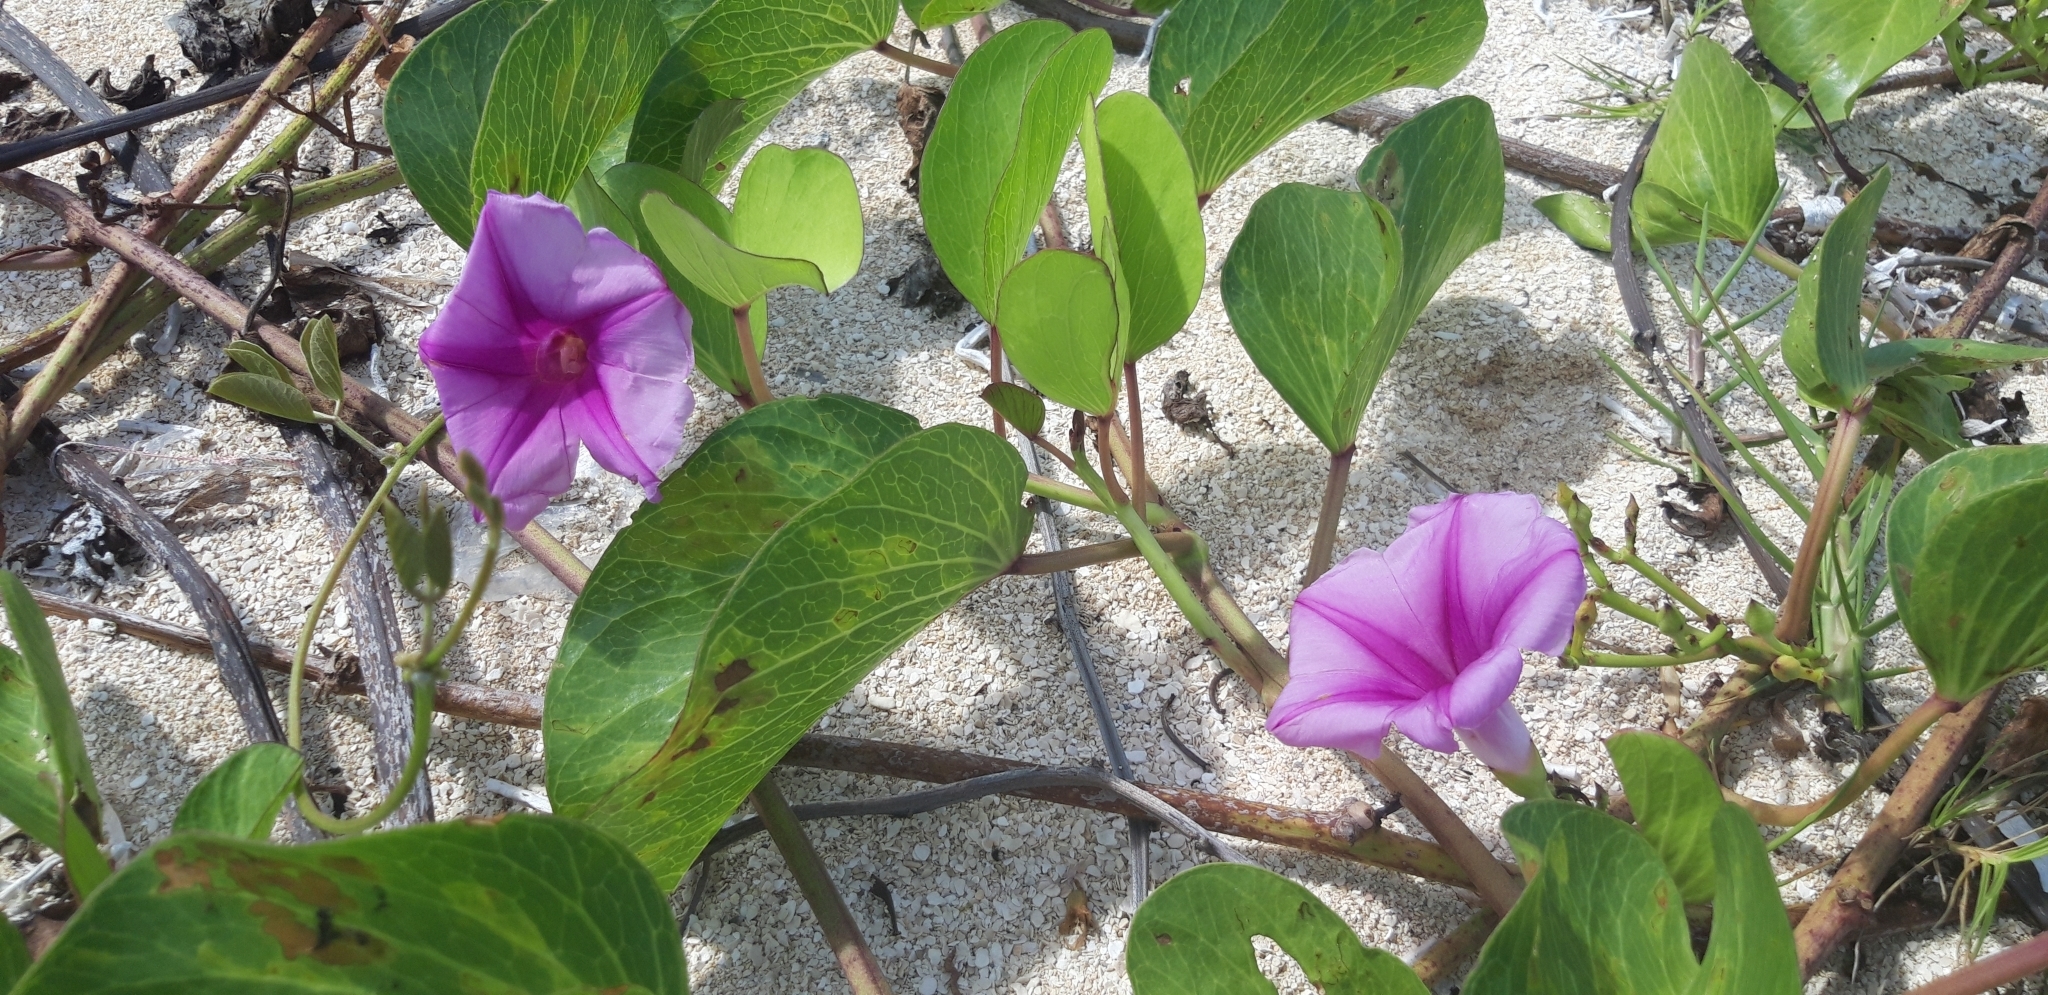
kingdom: Plantae
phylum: Tracheophyta
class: Magnoliopsida
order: Solanales
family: Convolvulaceae
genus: Ipomoea
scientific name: Ipomoea pes-caprae
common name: Beach morning glory
